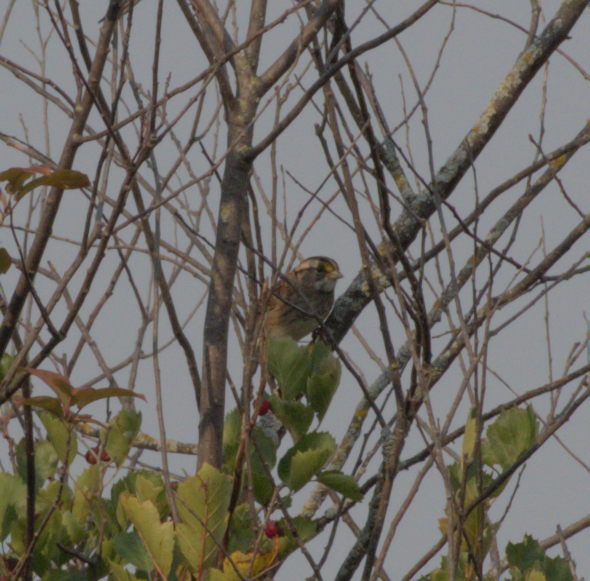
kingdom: Animalia
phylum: Chordata
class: Aves
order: Passeriformes
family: Passerellidae
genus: Zonotrichia
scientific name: Zonotrichia albicollis
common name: White-throated sparrow
